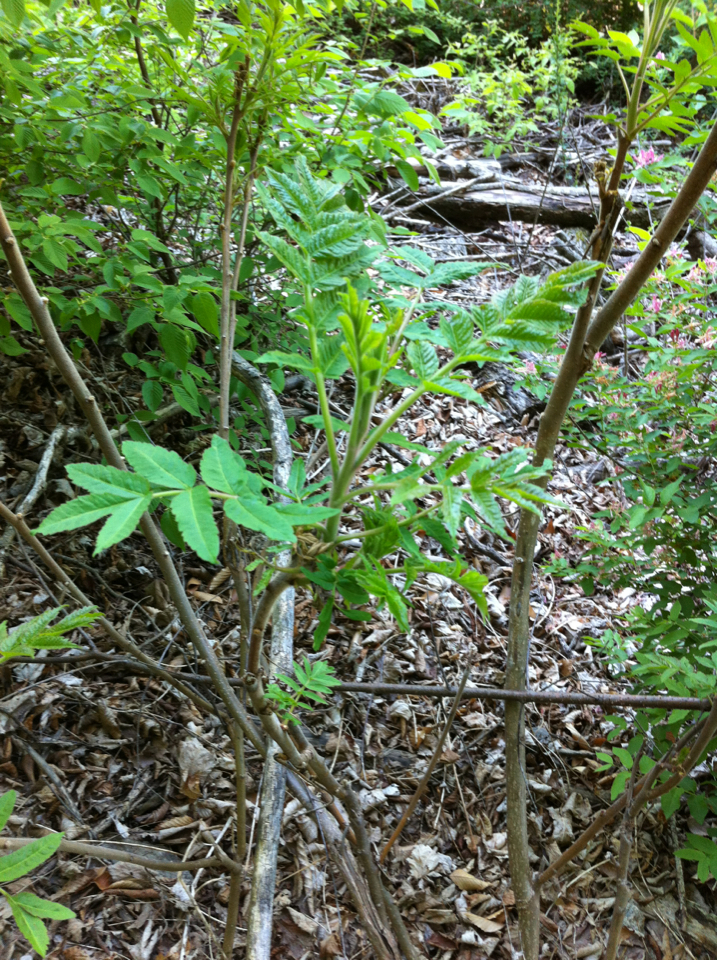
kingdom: Plantae
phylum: Tracheophyta
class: Magnoliopsida
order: Sapindales
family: Anacardiaceae
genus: Rhus
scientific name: Rhus typhina
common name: Staghorn sumac
